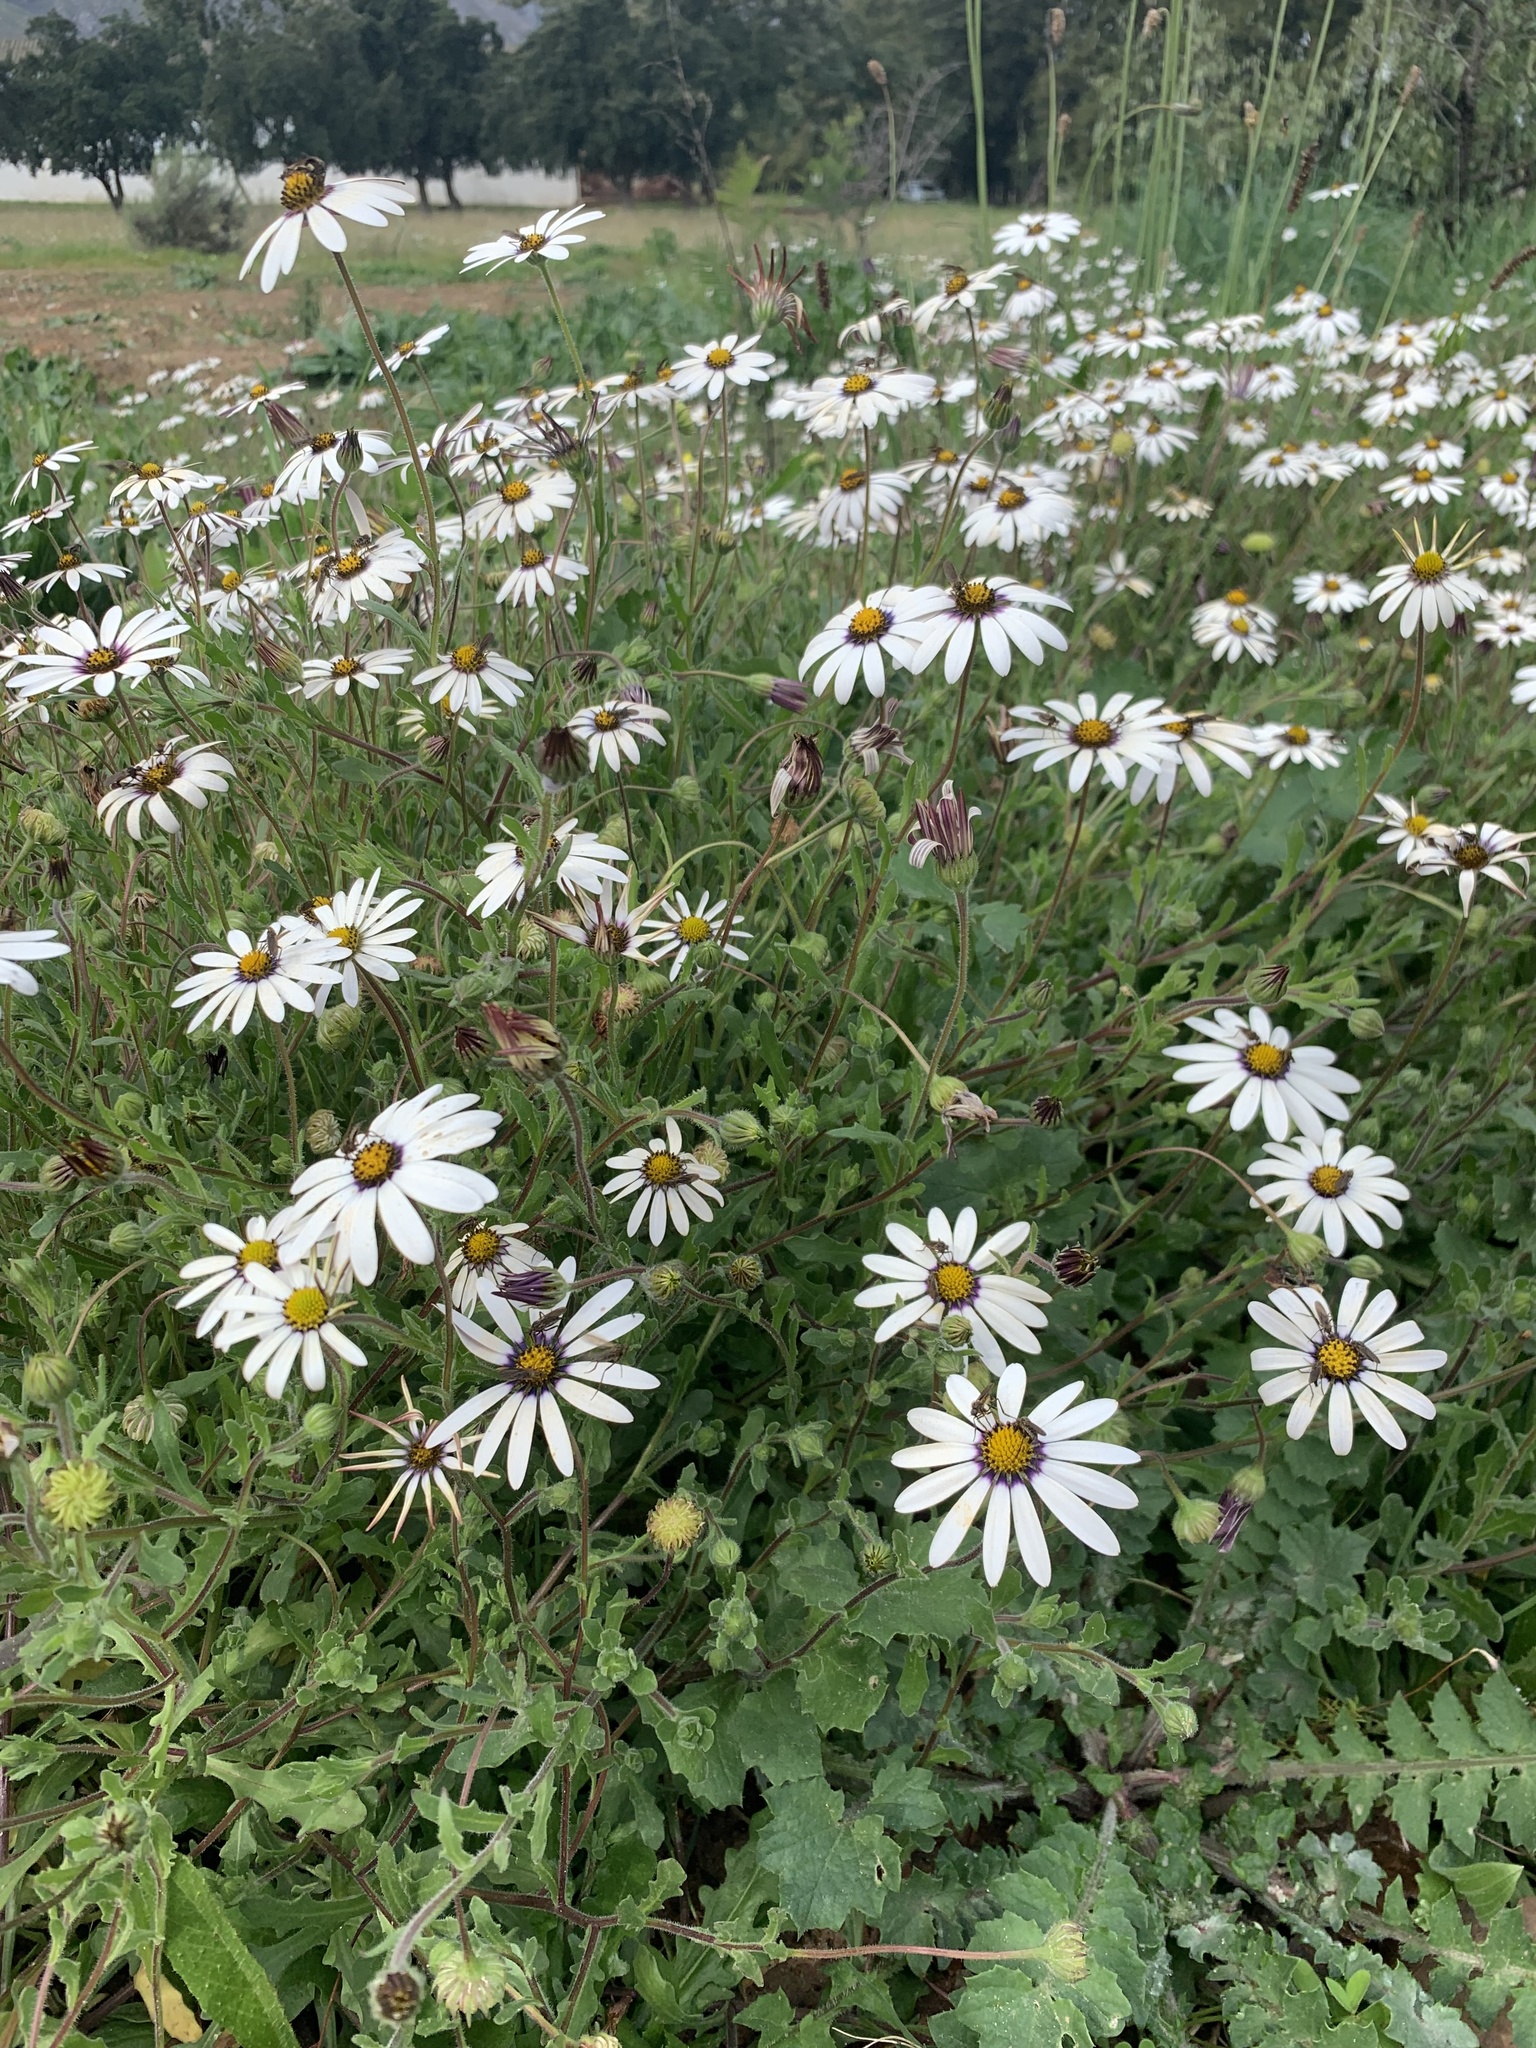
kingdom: Plantae
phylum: Tracheophyta
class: Magnoliopsida
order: Asterales
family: Asteraceae
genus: Dimorphotheca
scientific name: Dimorphotheca pluvialis
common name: Weather prophet
